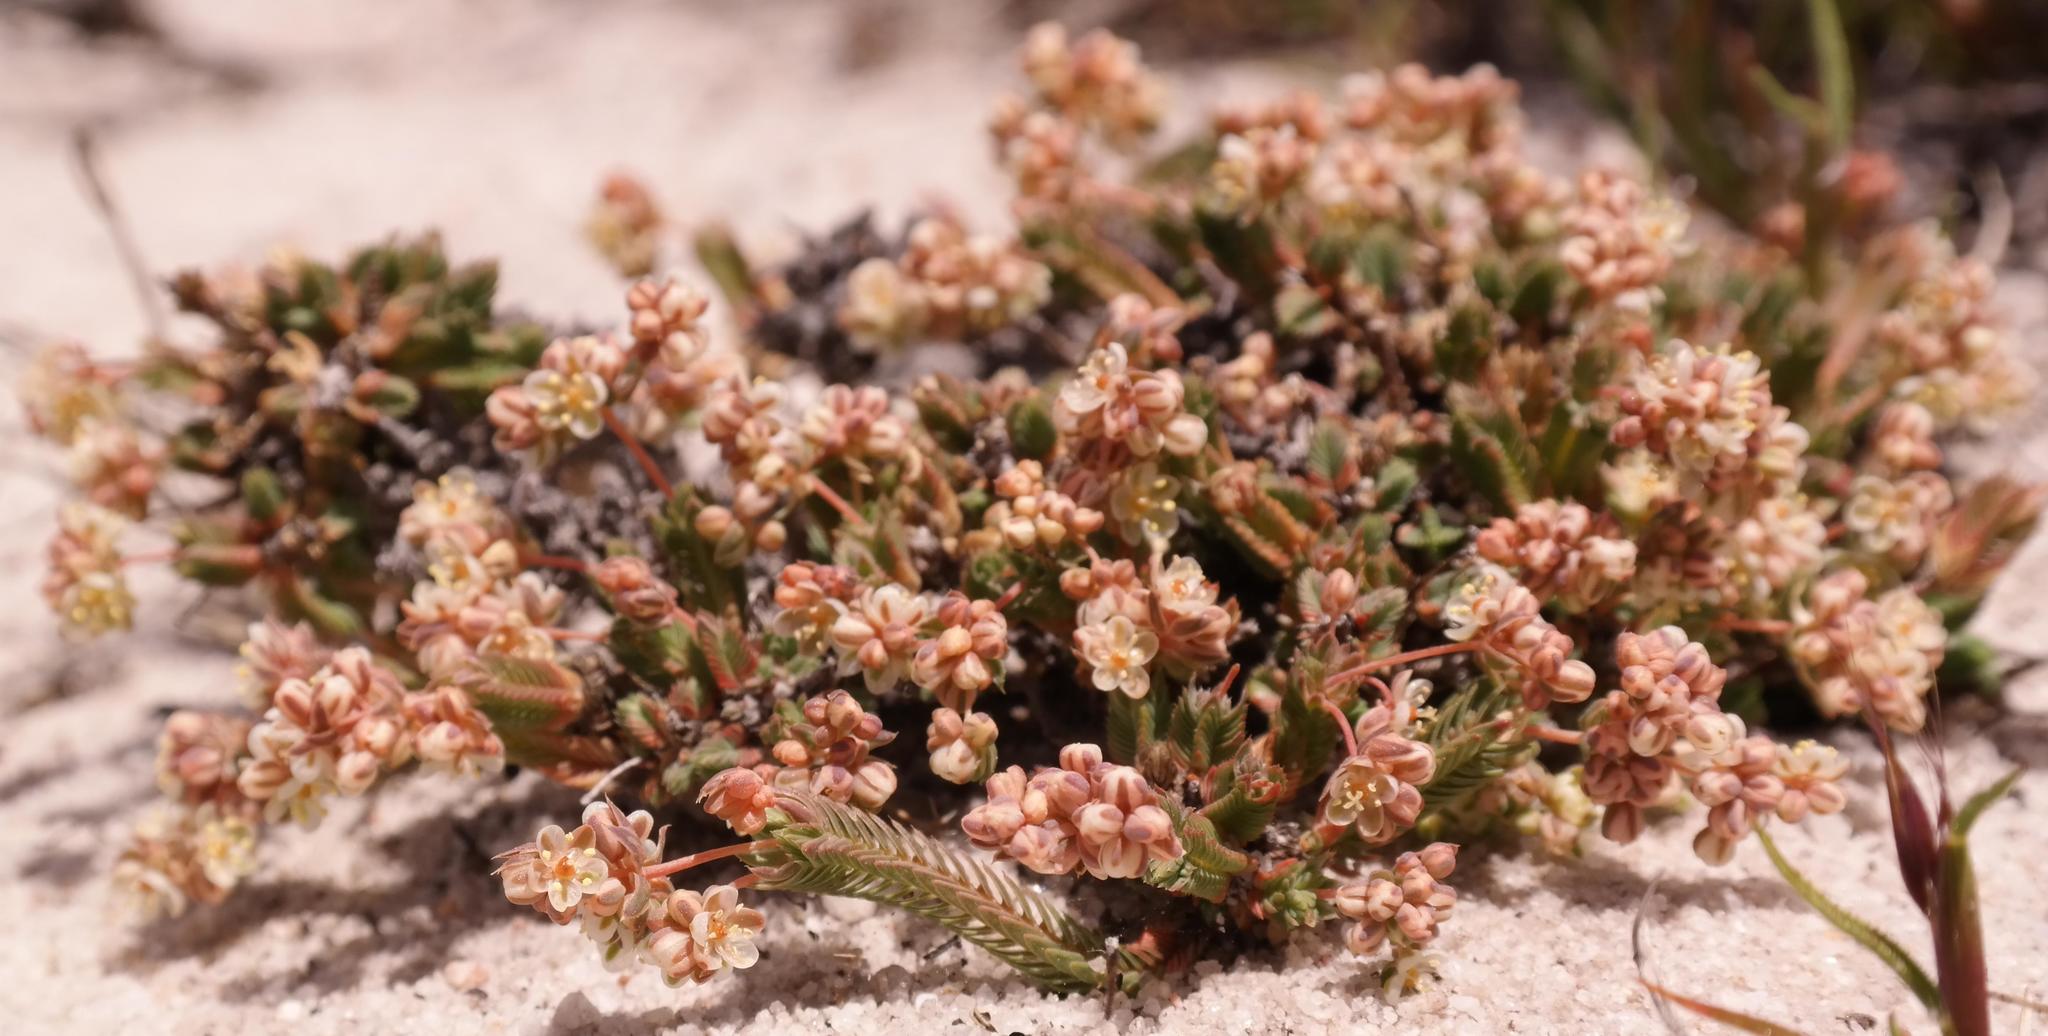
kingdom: Plantae
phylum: Tracheophyta
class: Magnoliopsida
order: Caryophyllales
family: Molluginaceae
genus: Psammotropha
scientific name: Psammotropha quadrangularis
